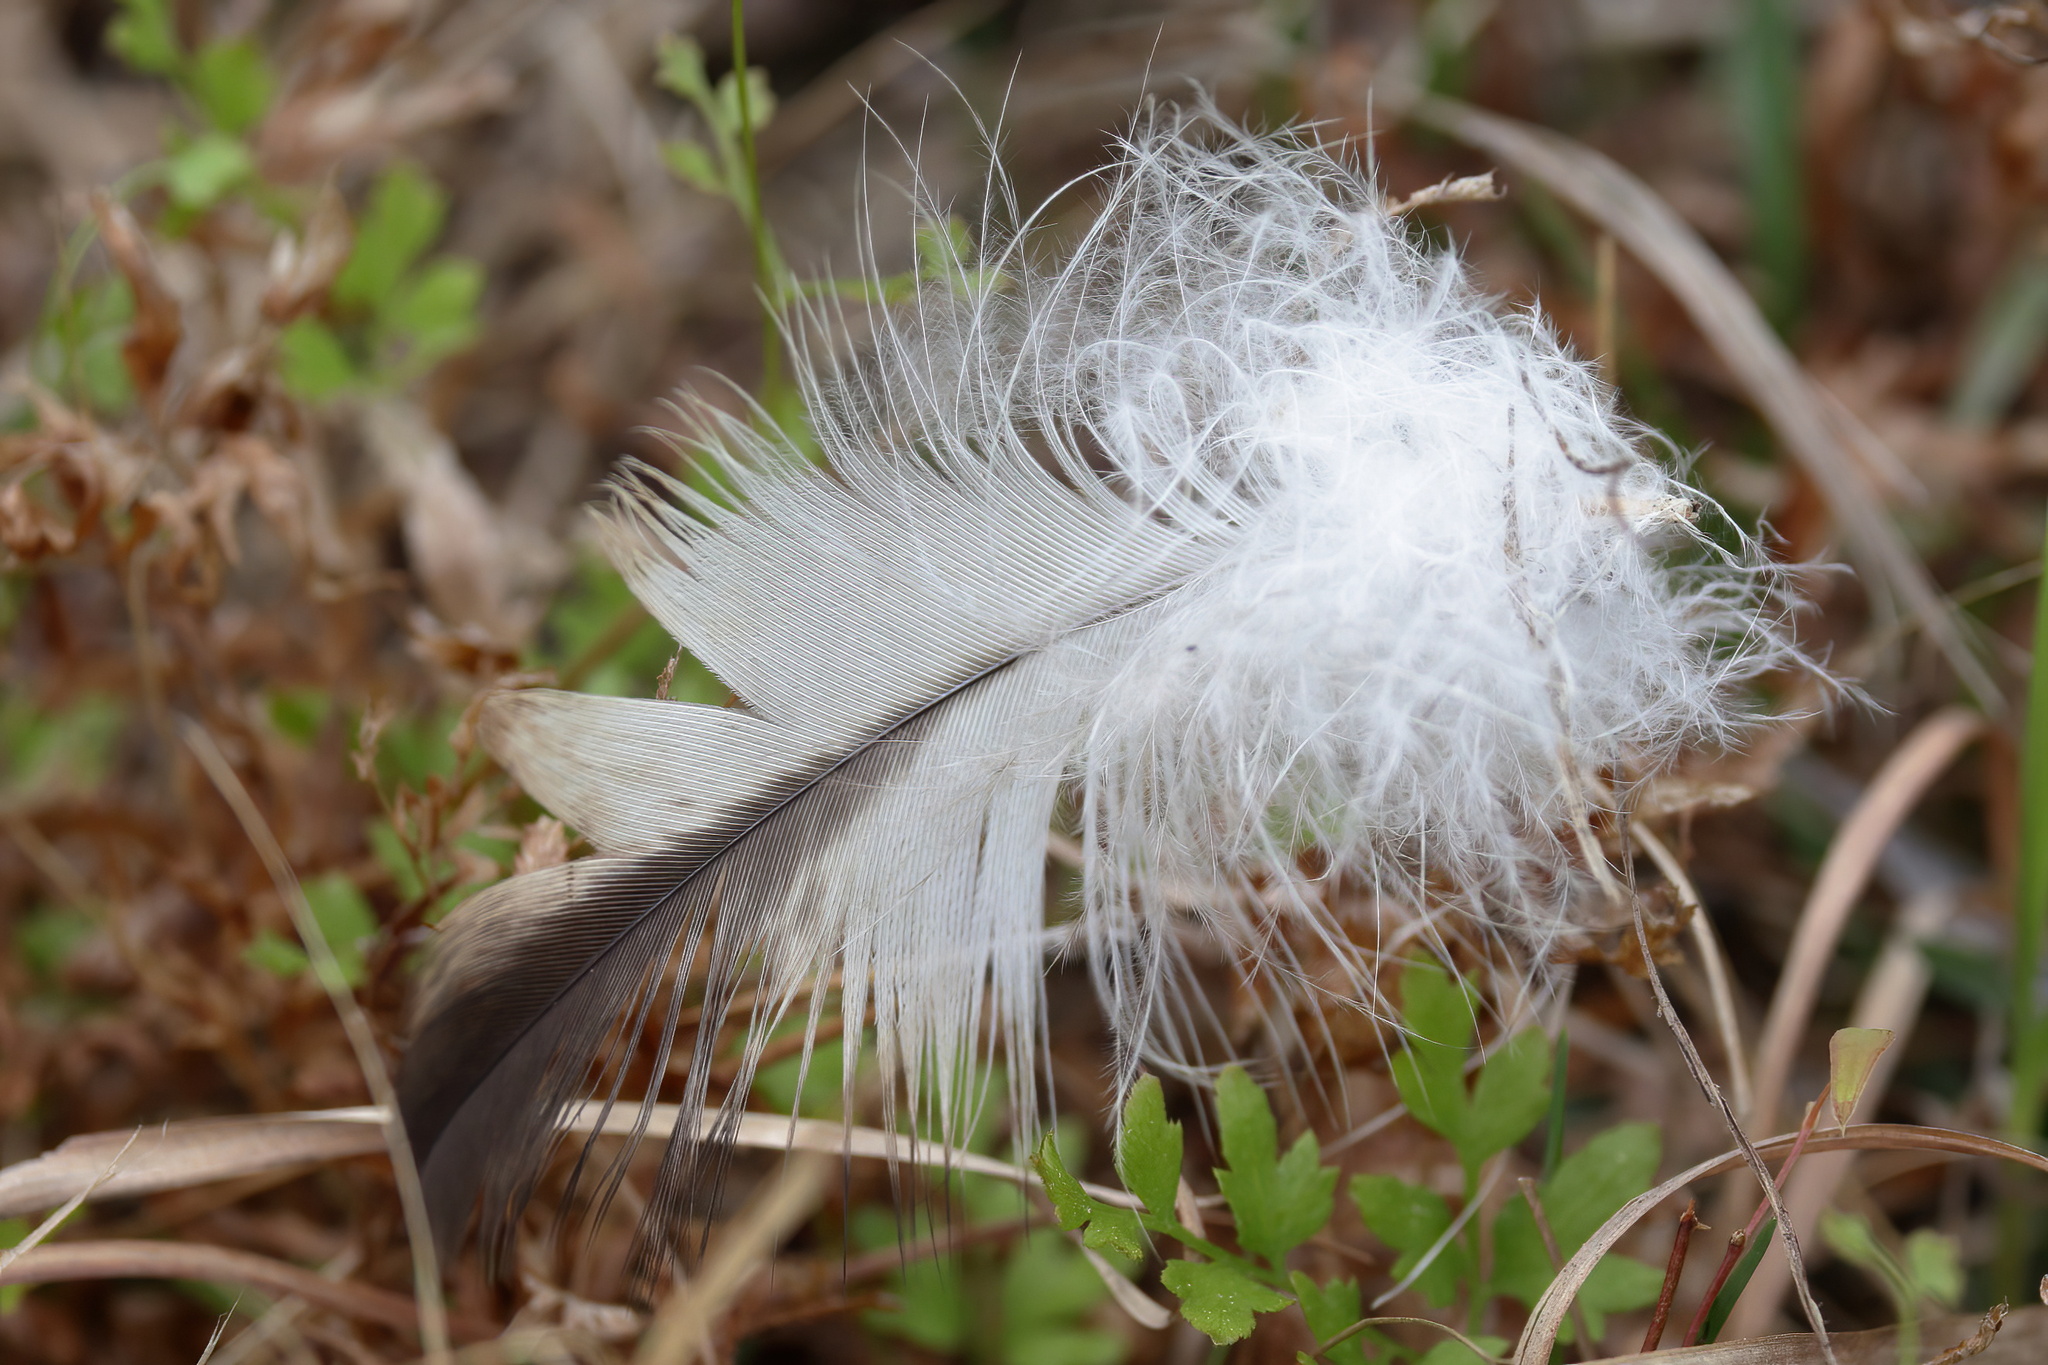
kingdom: Animalia
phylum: Chordata
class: Aves
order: Accipitriformes
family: Accipitridae
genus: Haliaeetus
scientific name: Haliaeetus leucocephalus
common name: Bald eagle
